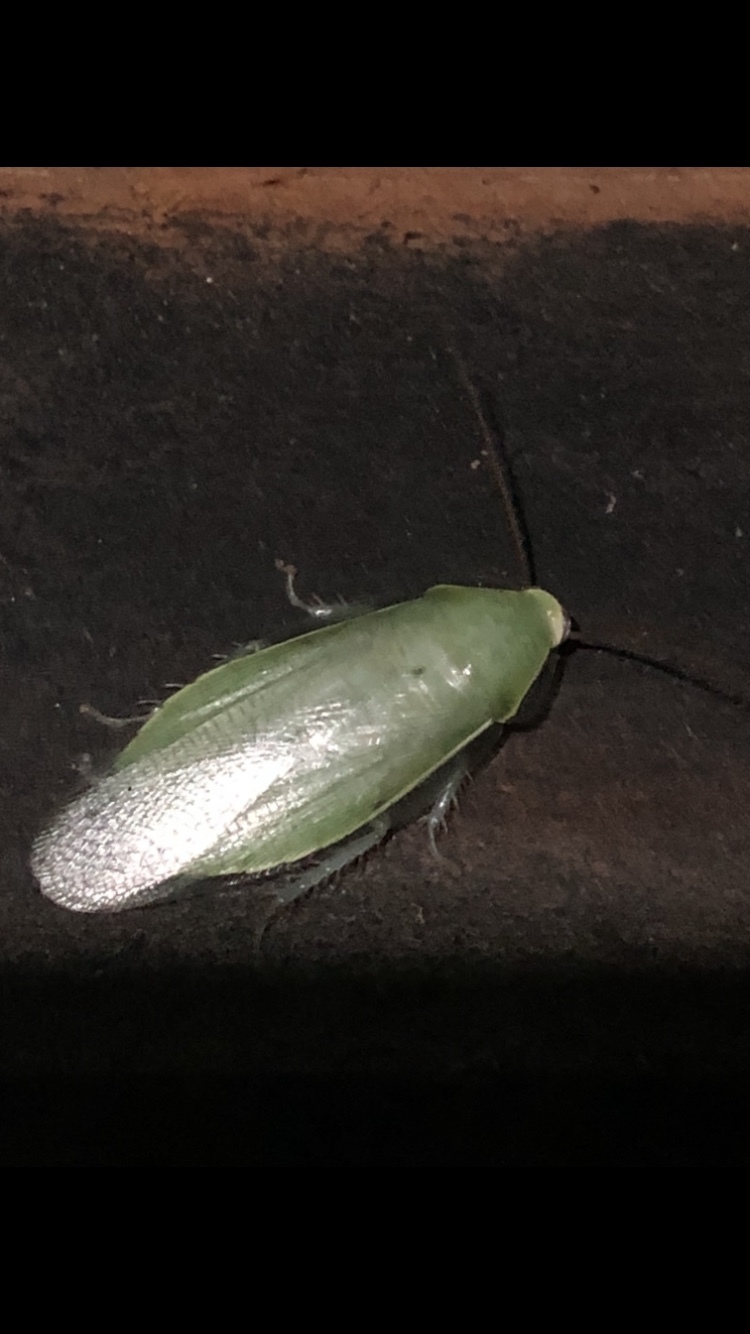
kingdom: Animalia
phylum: Arthropoda
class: Insecta
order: Blattodea
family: Blaberidae
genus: Panchlora
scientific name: Panchlora nivea
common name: Cuban cockroach
